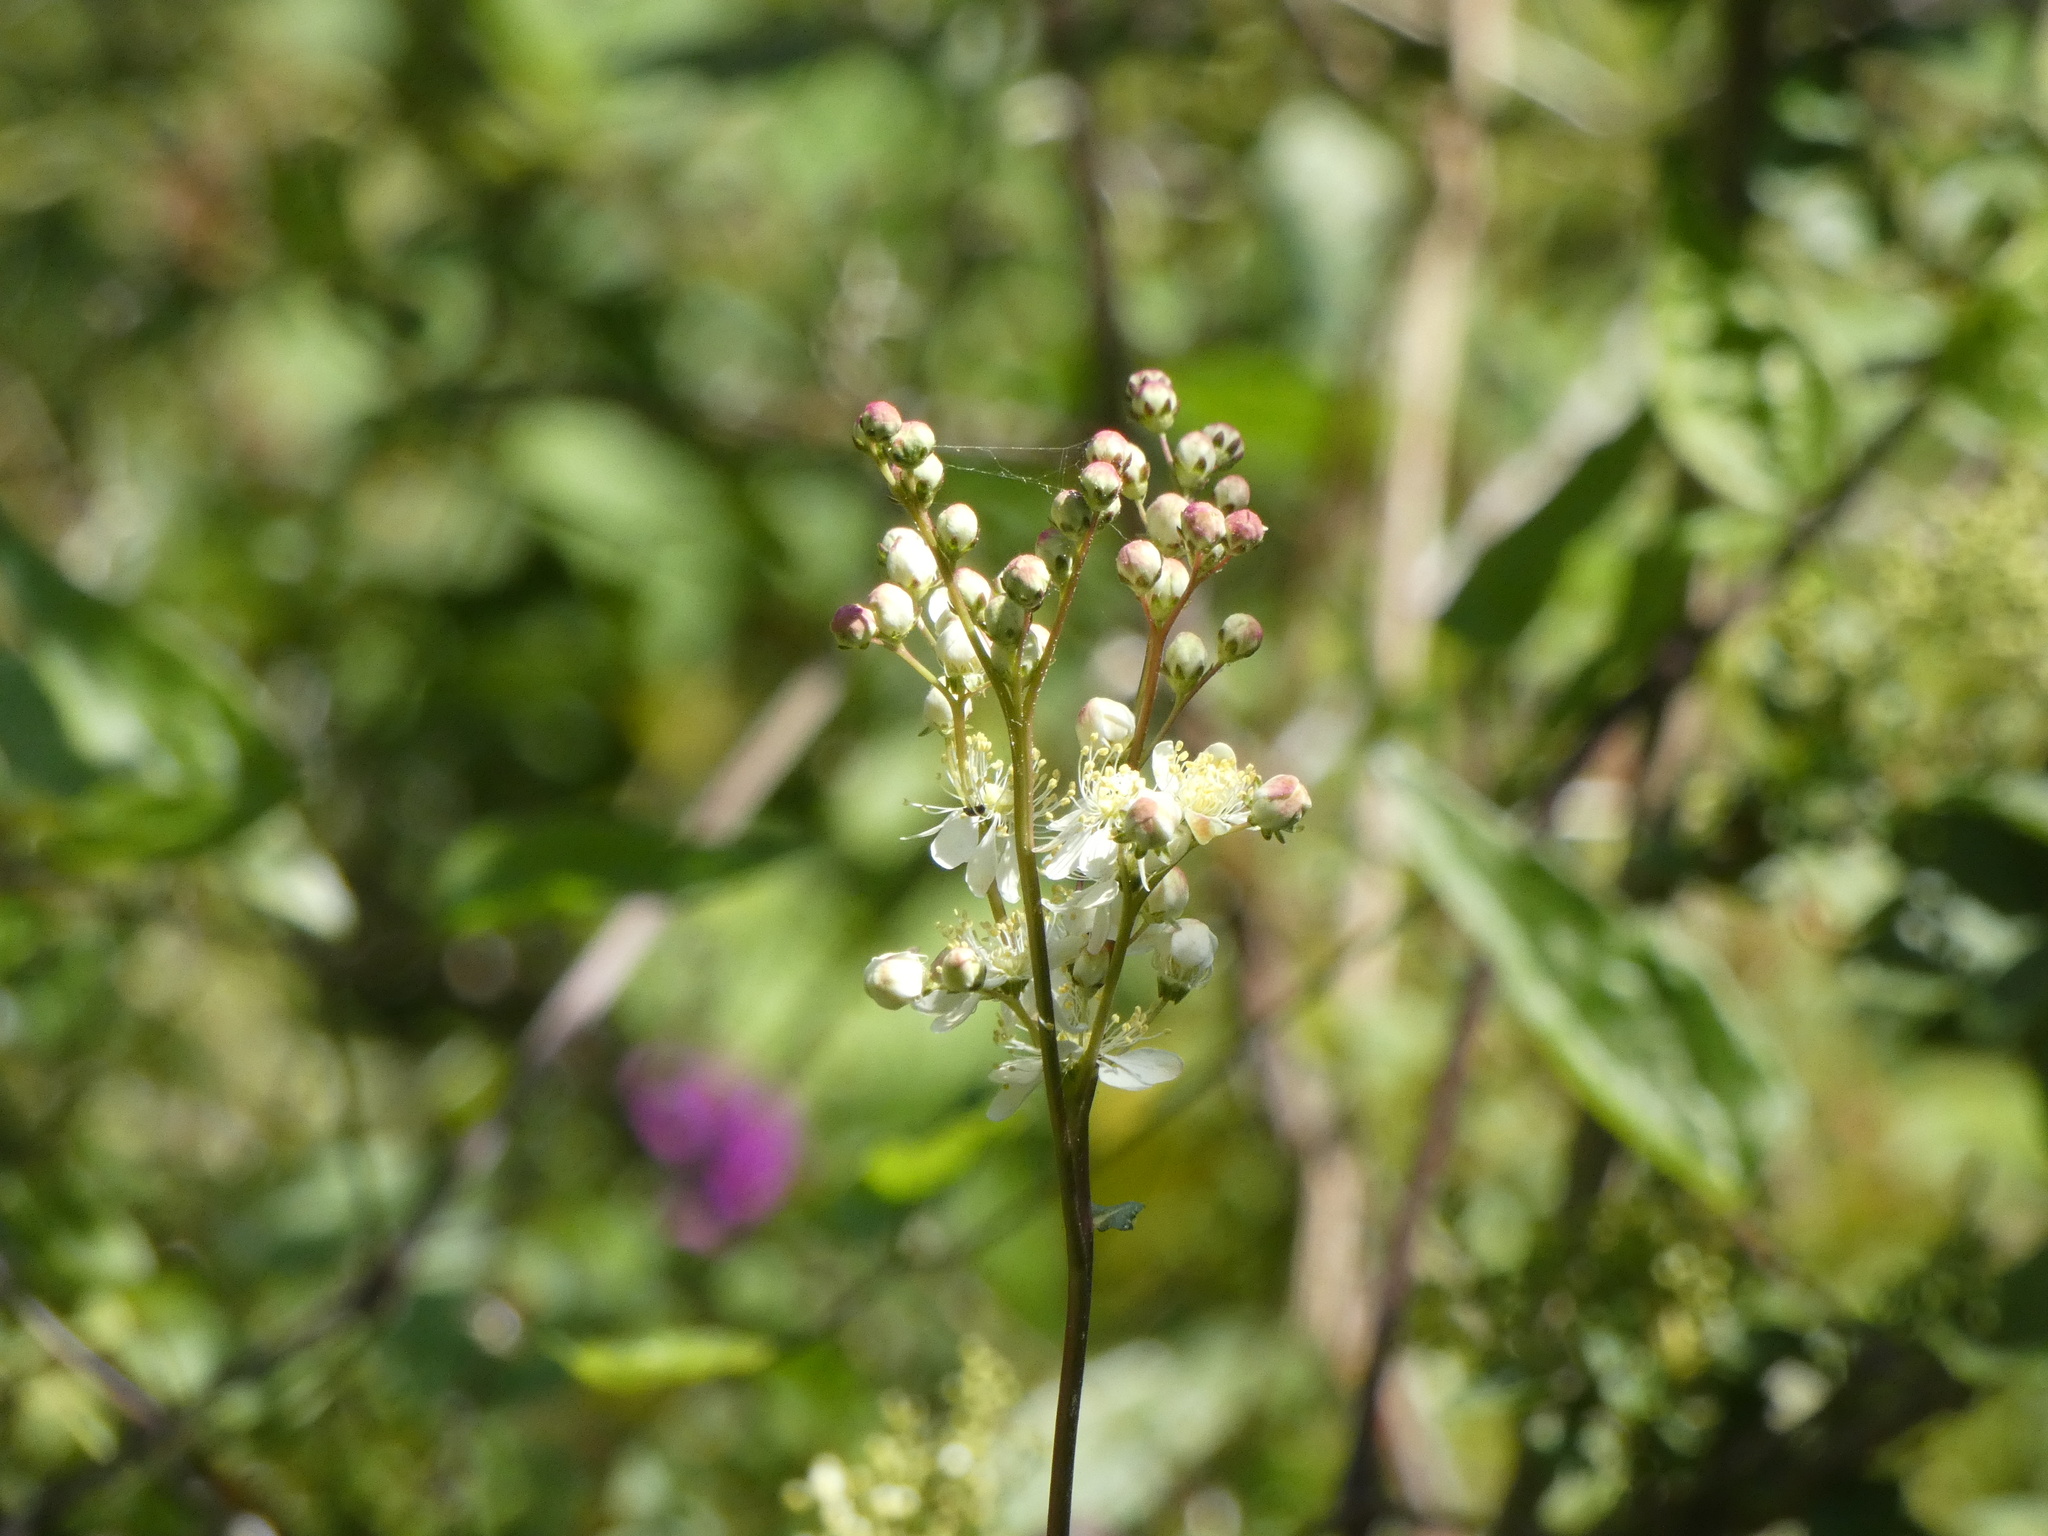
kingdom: Plantae
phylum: Tracheophyta
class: Magnoliopsida
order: Rosales
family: Rosaceae
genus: Filipendula
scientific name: Filipendula vulgaris
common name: Dropwort
